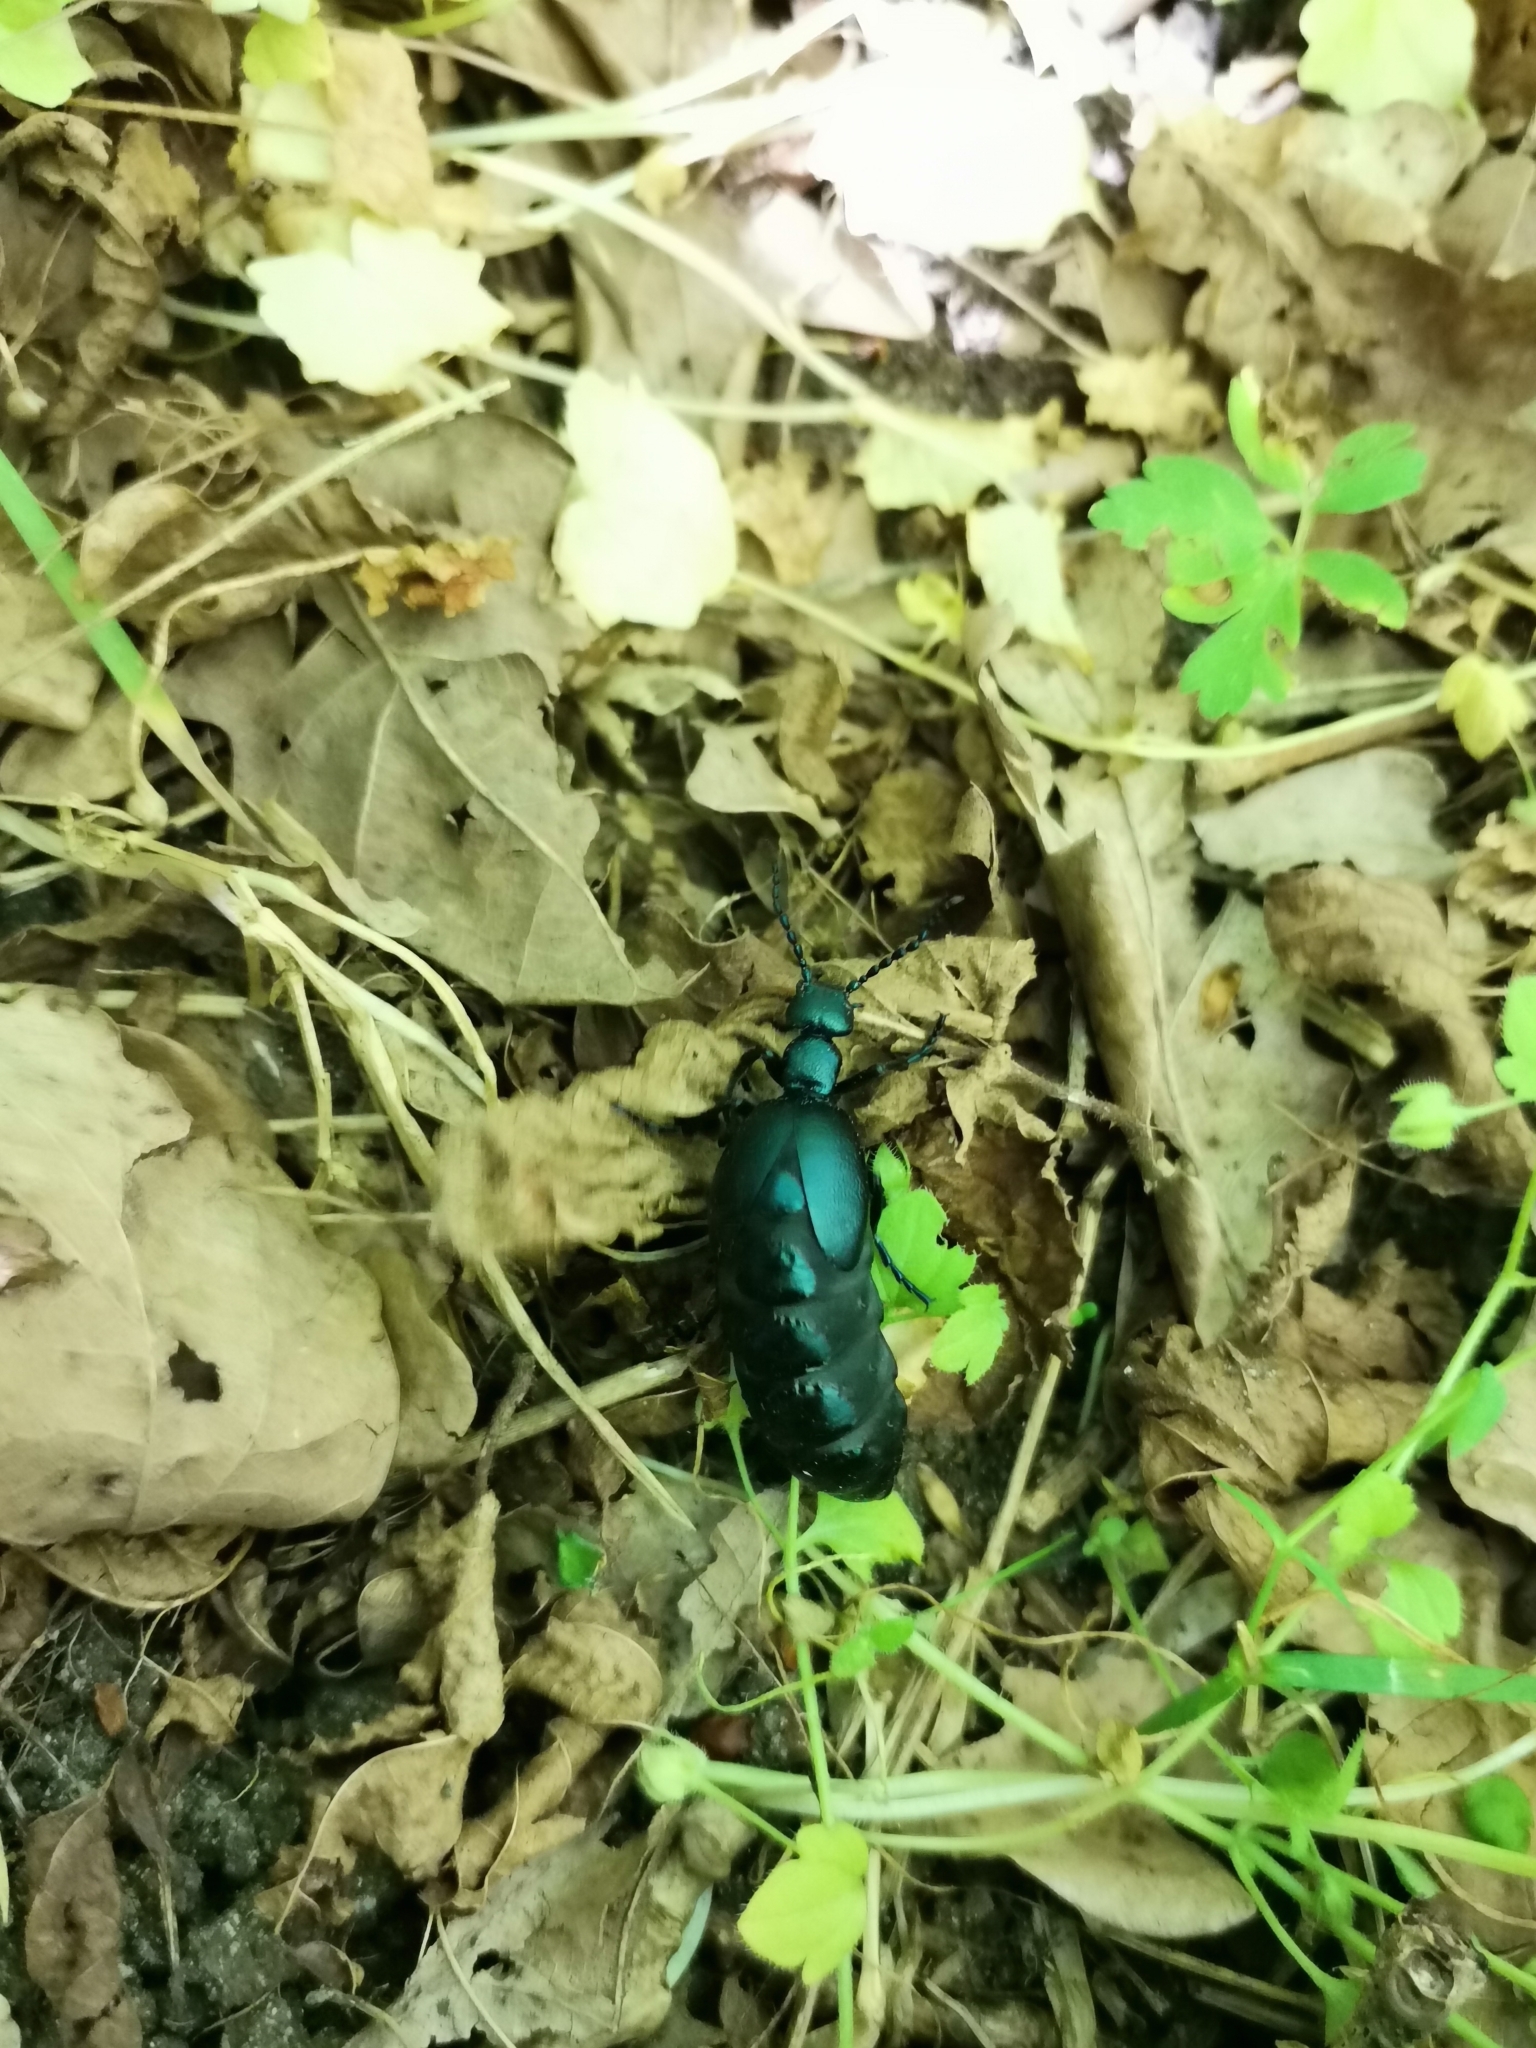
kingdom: Animalia
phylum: Arthropoda
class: Insecta
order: Coleoptera
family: Meloidae
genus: Meloe
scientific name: Meloe violaceus
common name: Violet oil-beetle
